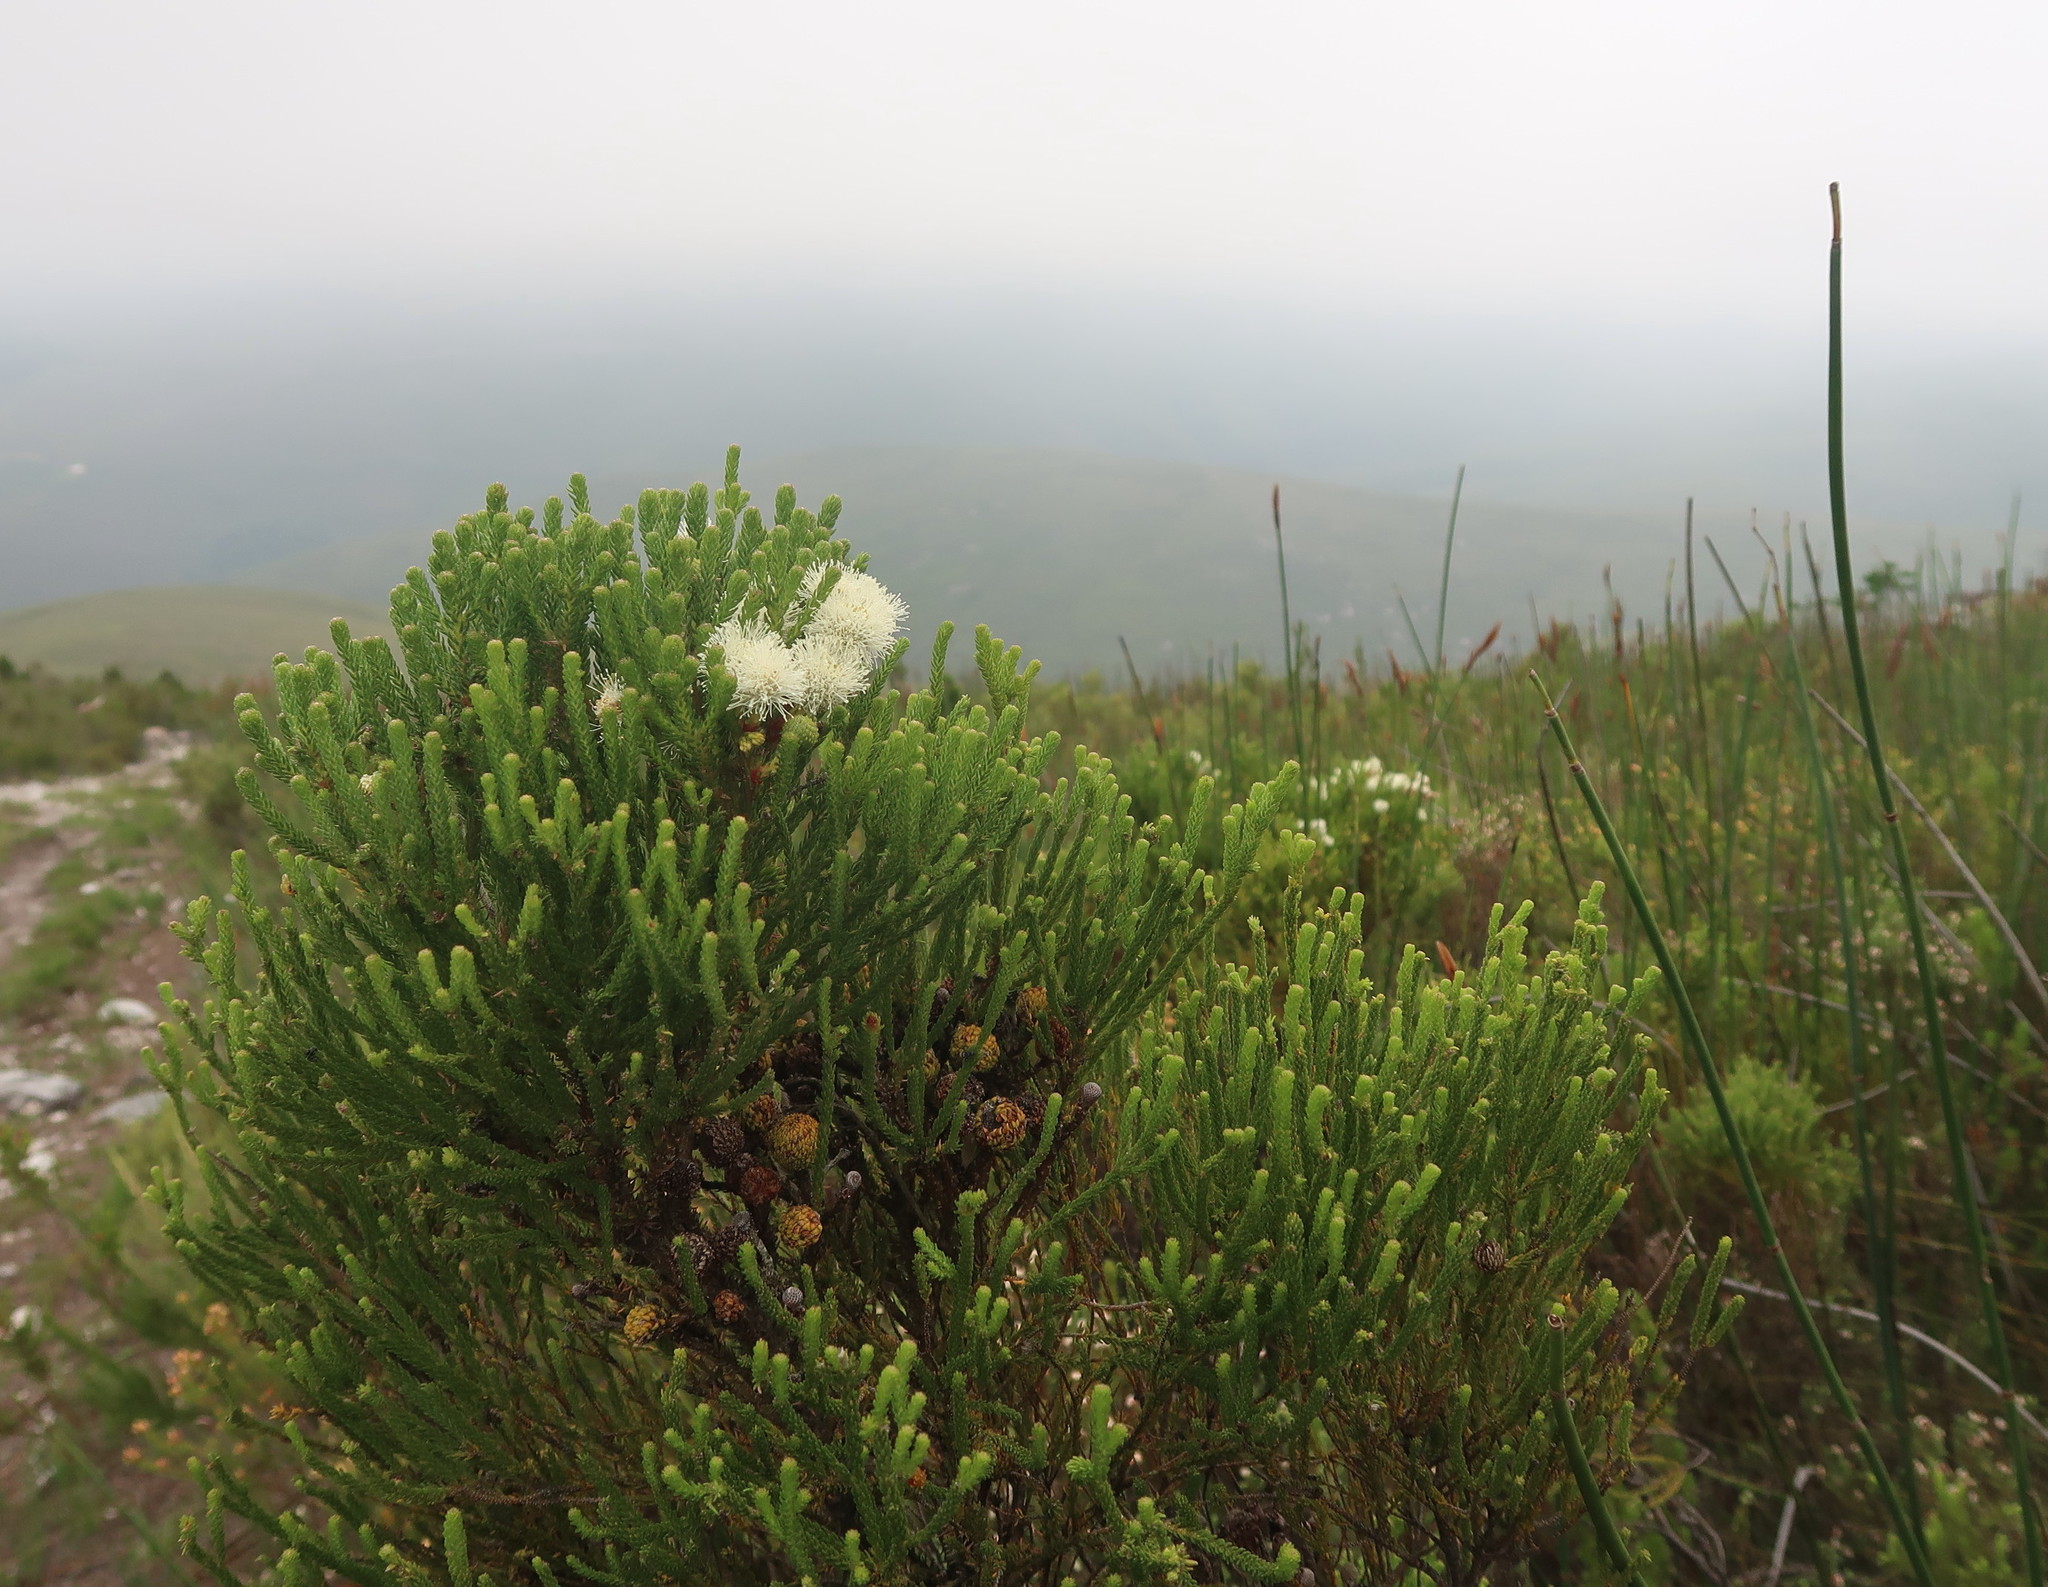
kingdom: Plantae
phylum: Tracheophyta
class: Magnoliopsida
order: Bruniales
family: Bruniaceae
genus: Berzelia
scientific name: Berzelia intermedia
